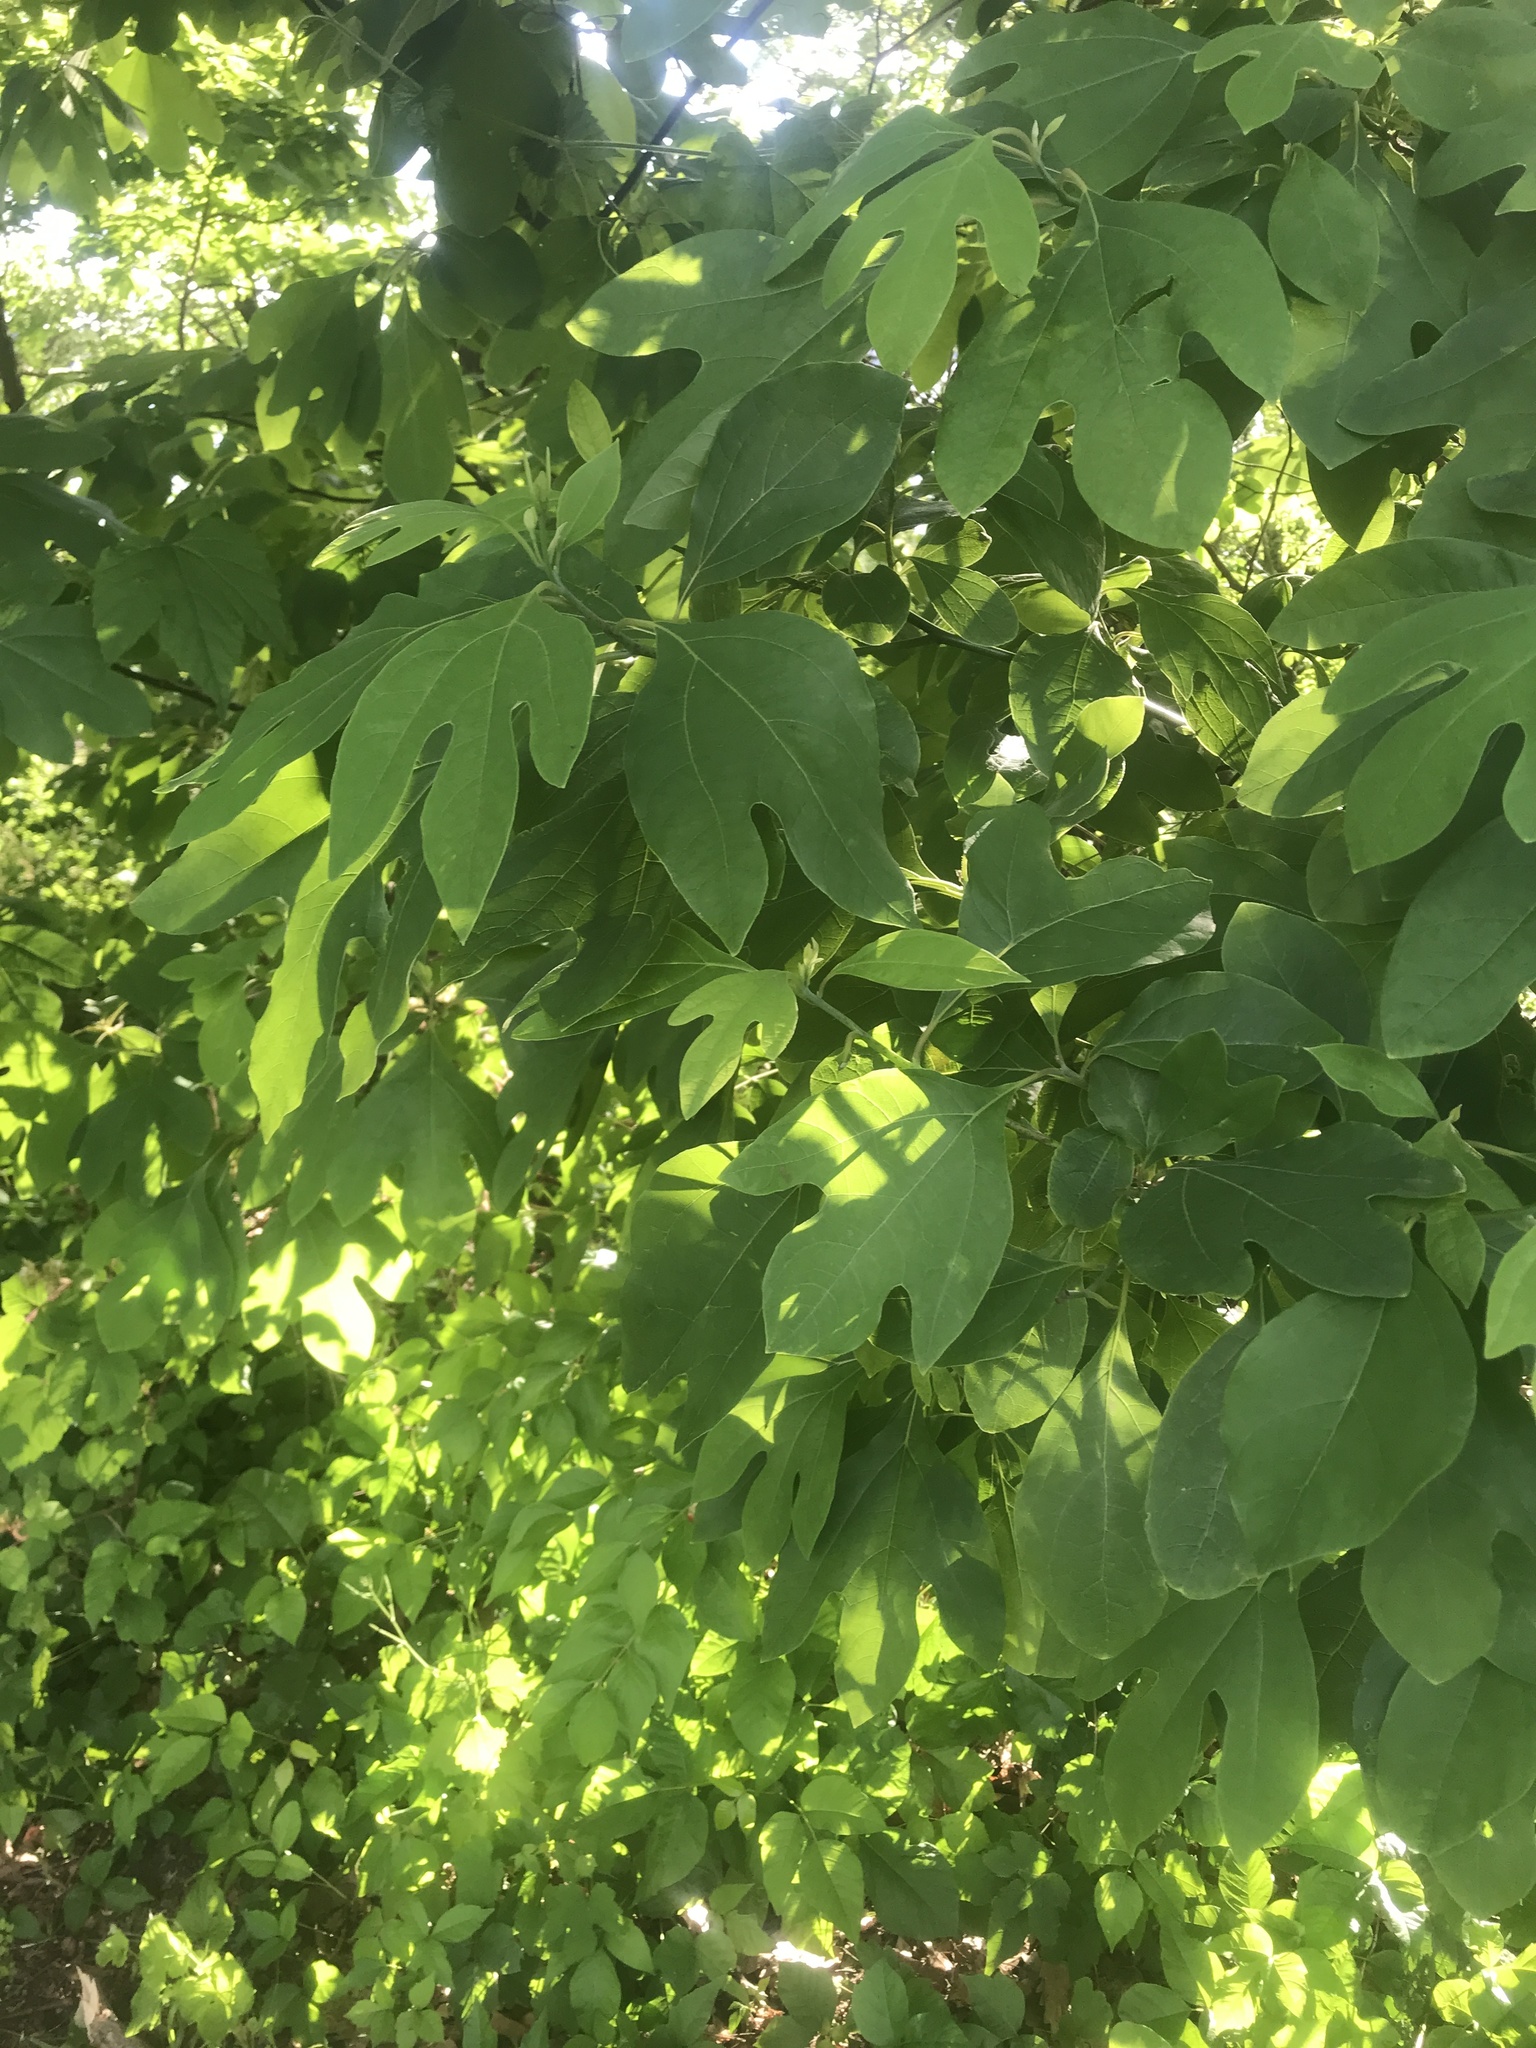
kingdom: Plantae
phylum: Tracheophyta
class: Magnoliopsida
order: Laurales
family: Lauraceae
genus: Sassafras
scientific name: Sassafras albidum
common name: Sassafras
